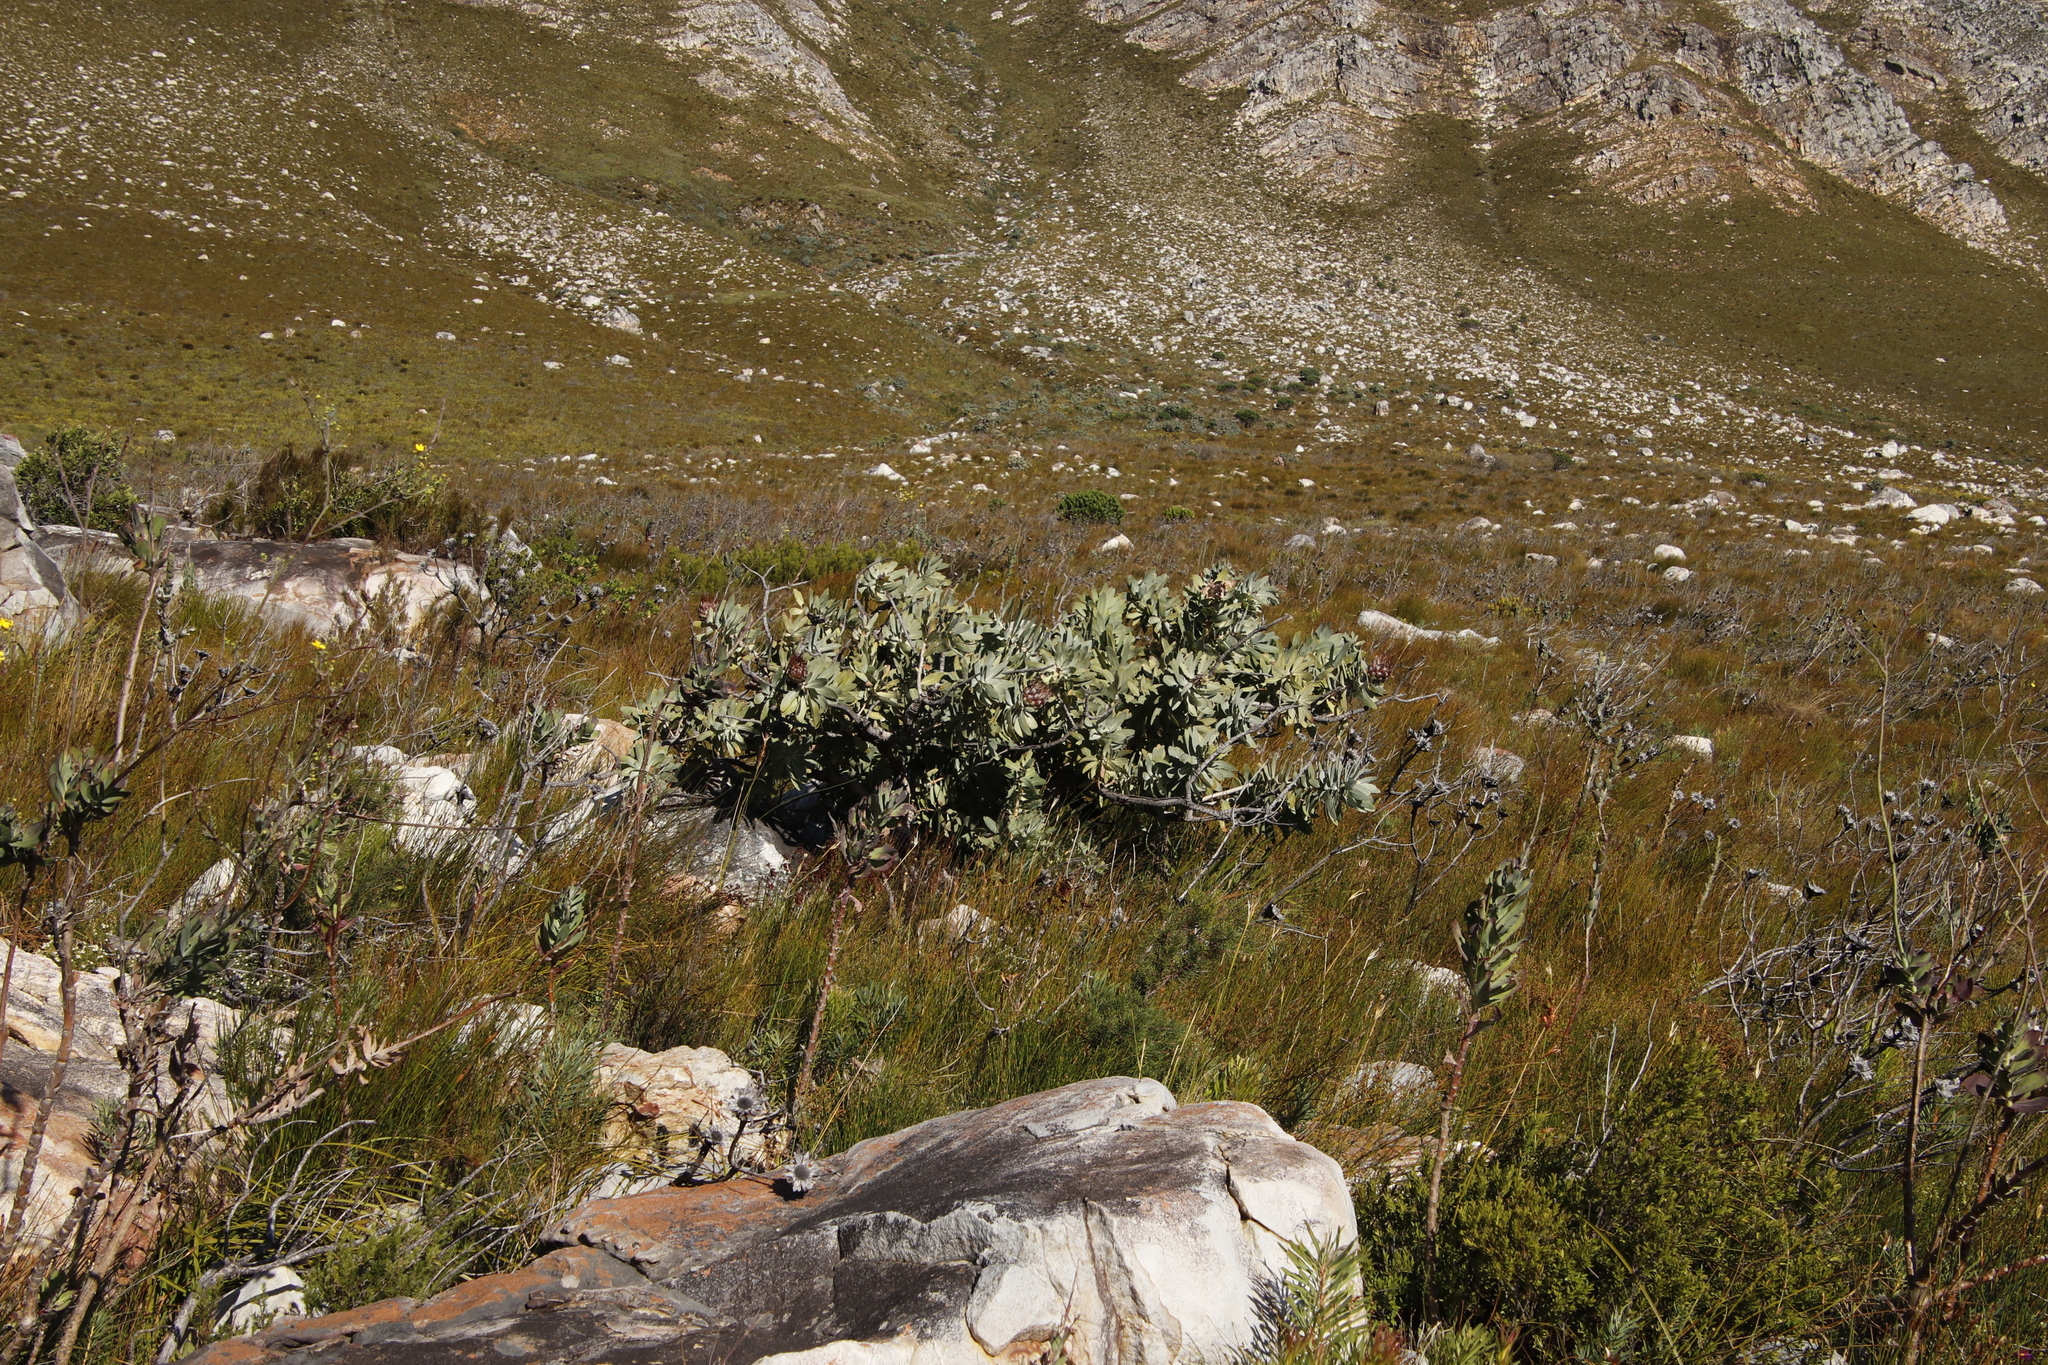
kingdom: Plantae
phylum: Tracheophyta
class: Magnoliopsida
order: Proteales
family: Proteaceae
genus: Protea
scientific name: Protea nitida
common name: Tree protea
